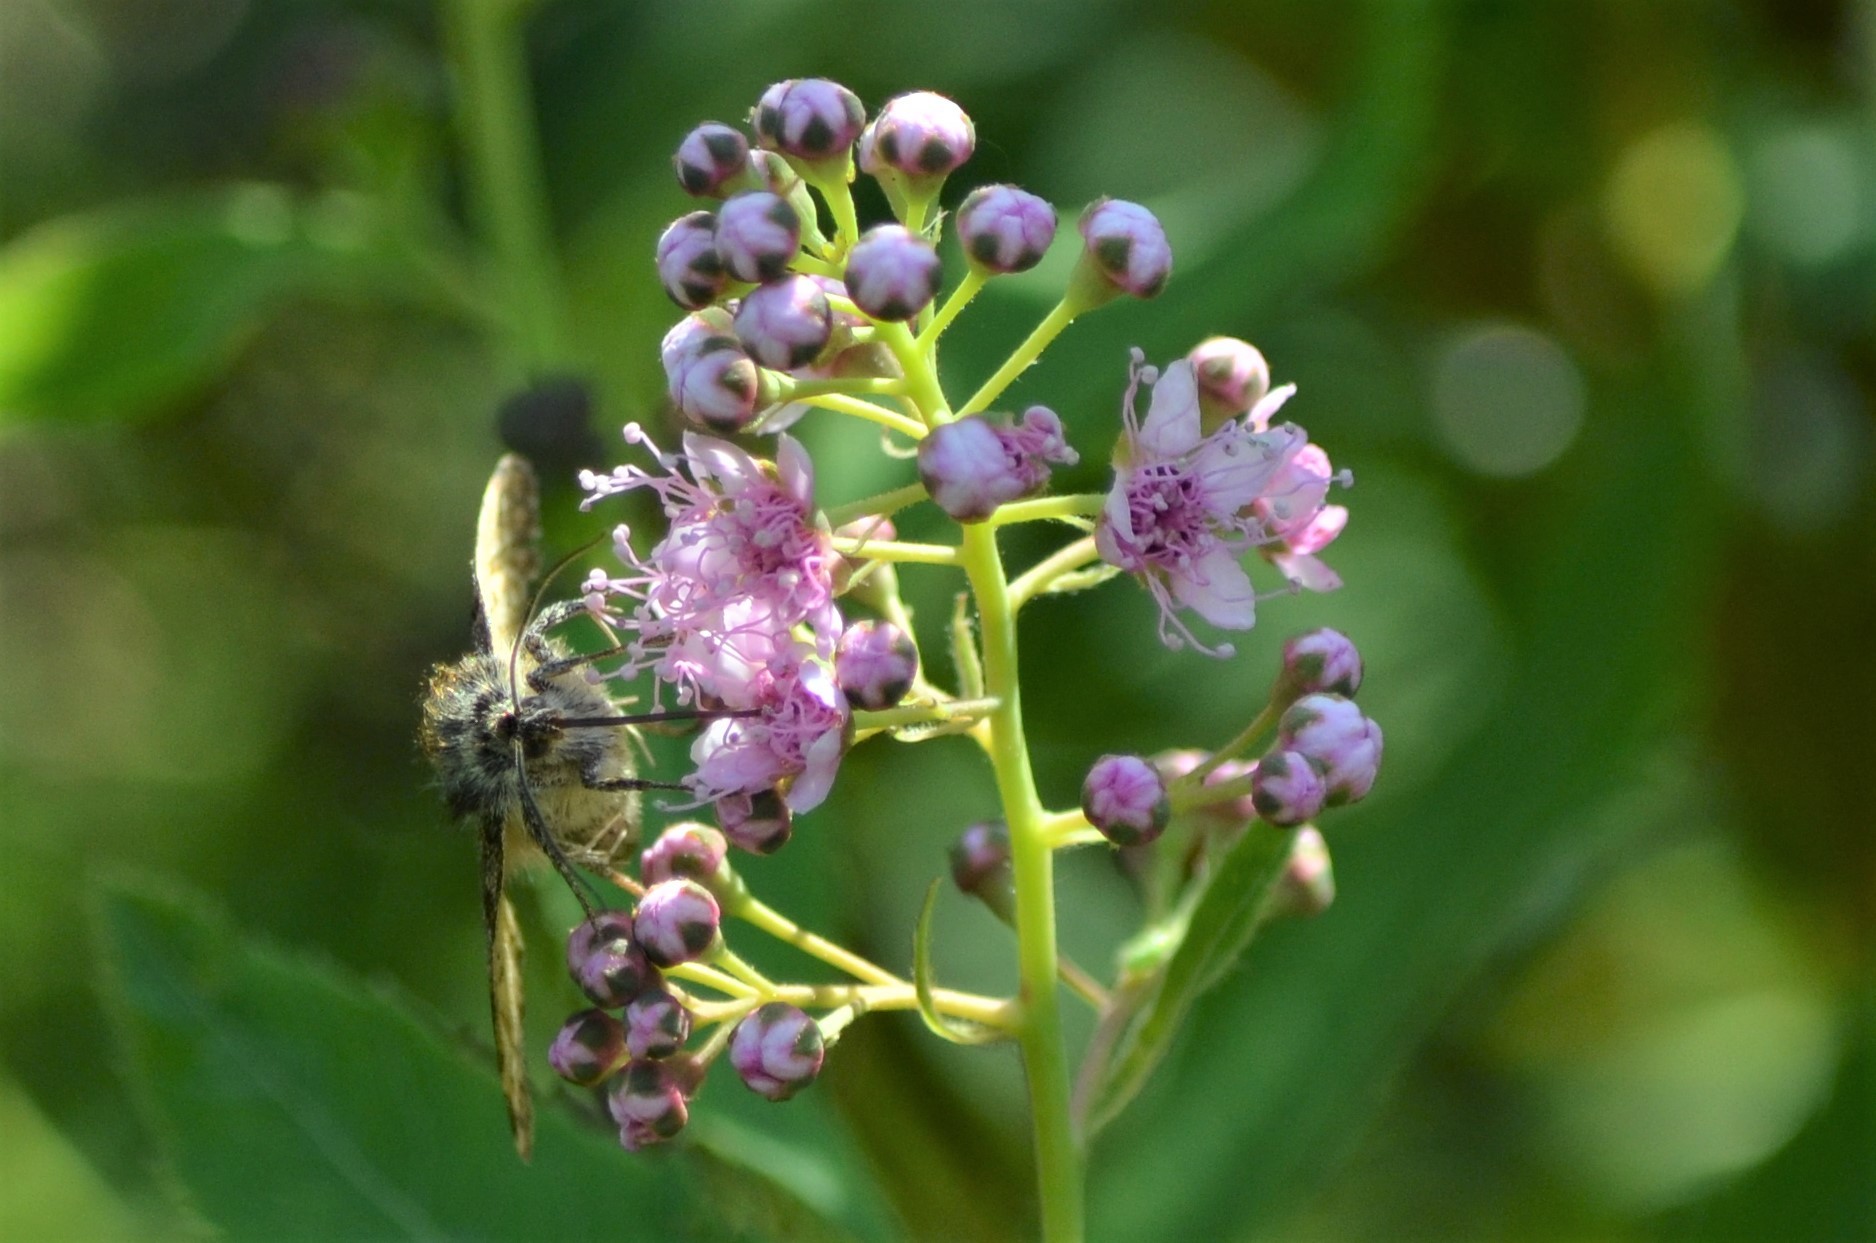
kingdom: Animalia
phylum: Arthropoda
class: Insecta
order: Lepidoptera
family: Erebidae
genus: Euclidia
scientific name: Euclidia glyphica
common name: Burnet companion
